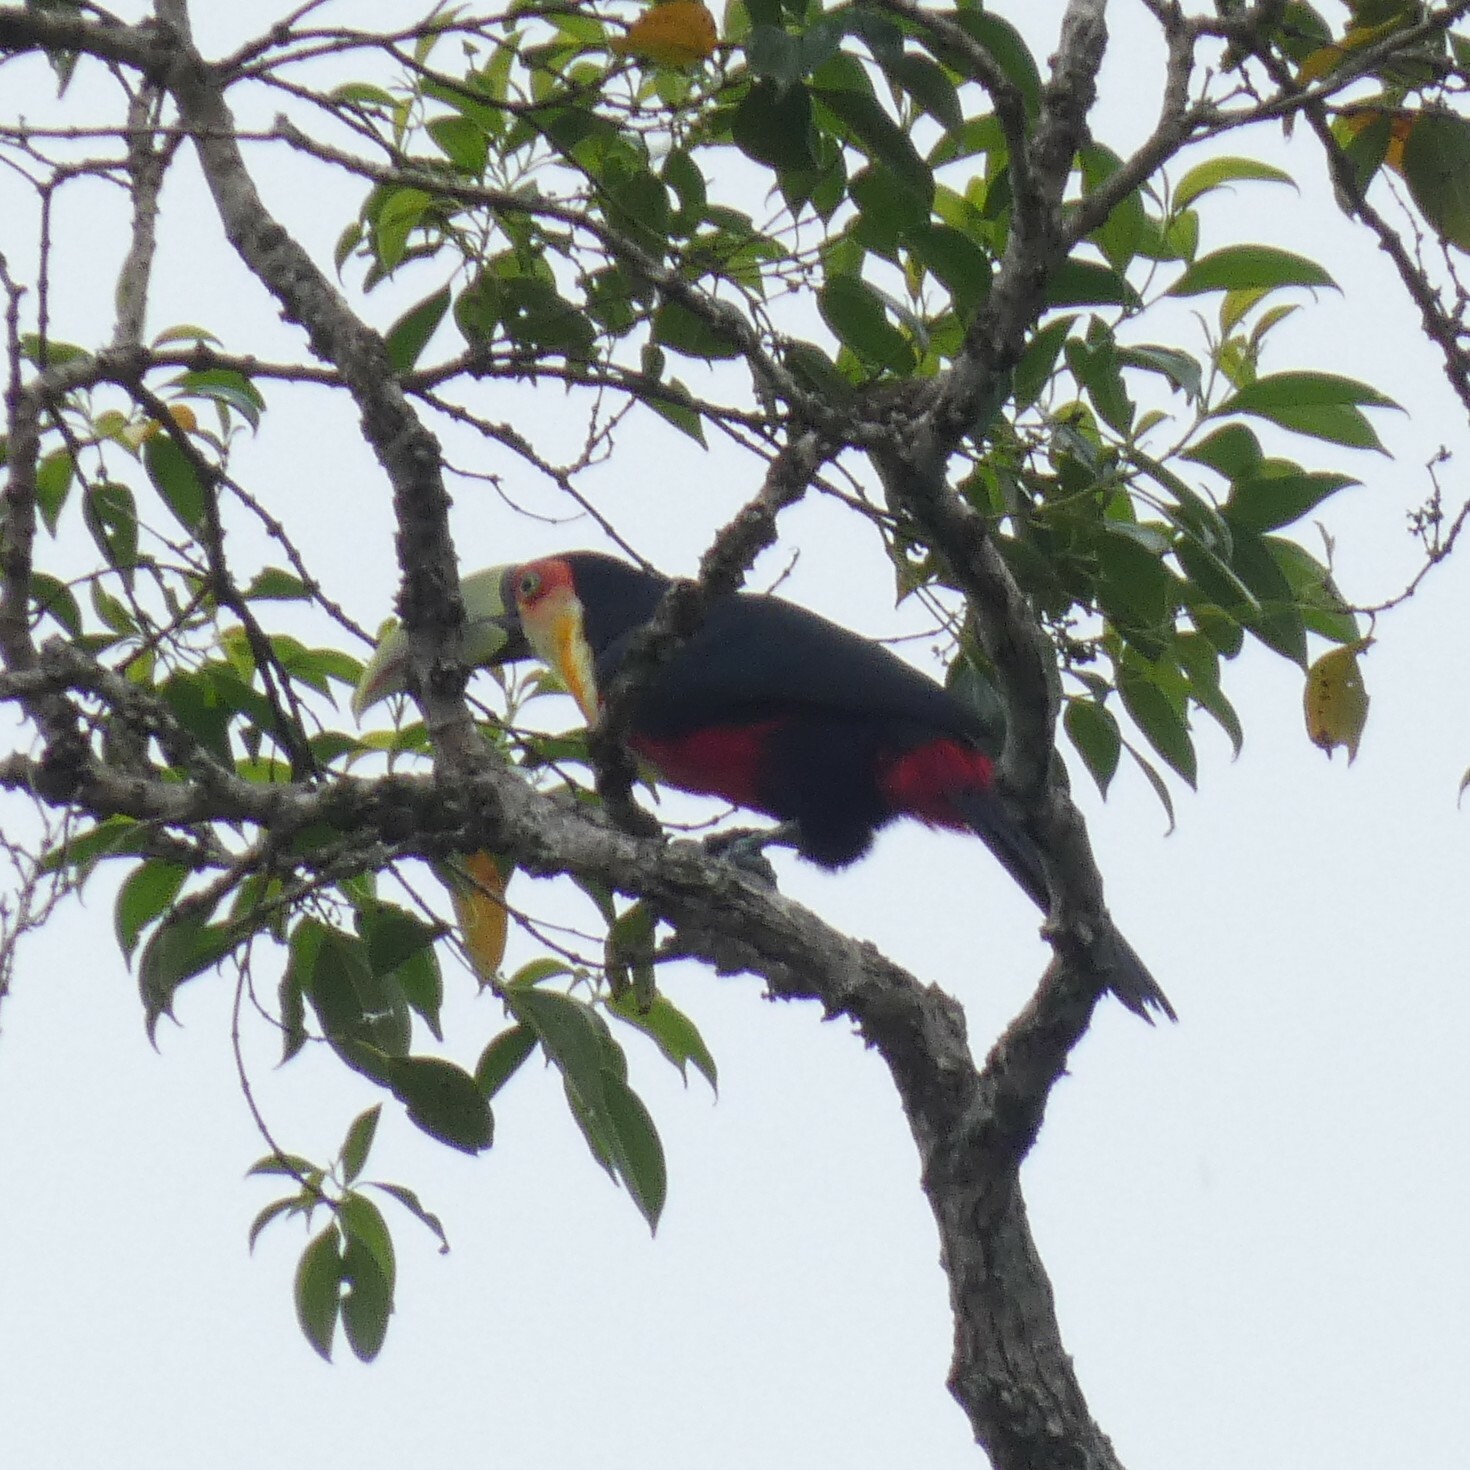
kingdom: Animalia
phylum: Chordata
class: Aves
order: Piciformes
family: Ramphastidae
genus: Ramphastos
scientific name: Ramphastos dicolorus
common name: Green-billed toucan
